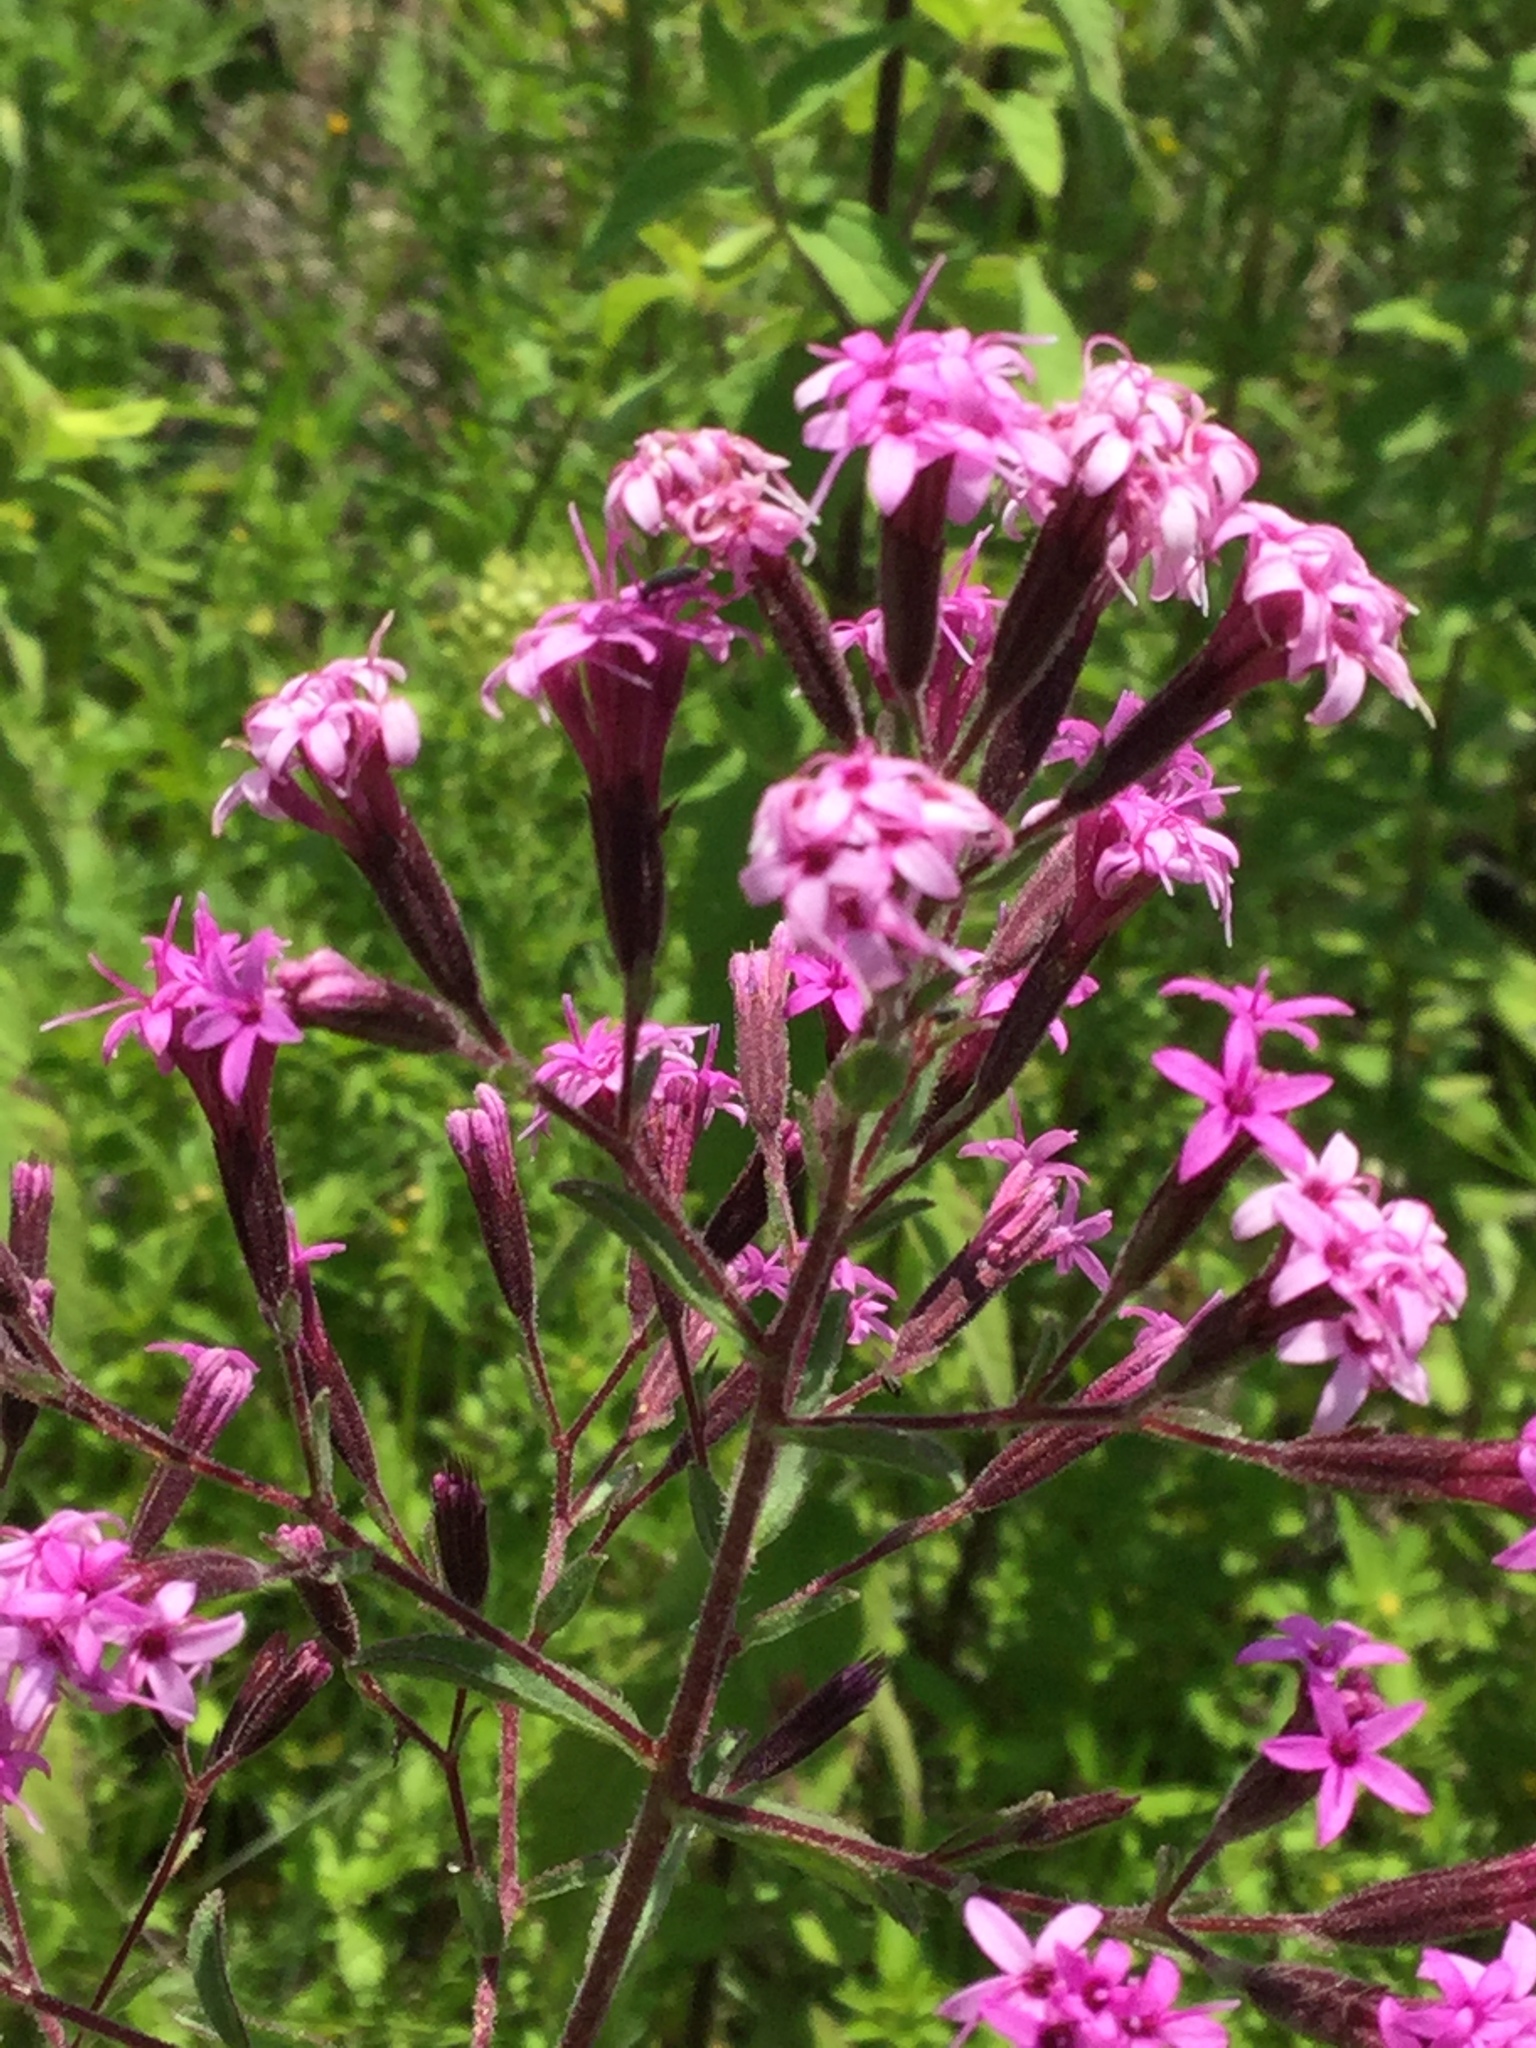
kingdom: Plantae
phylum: Tracheophyta
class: Magnoliopsida
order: Asterales
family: Asteraceae
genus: Stevia
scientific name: Stevia viscida
